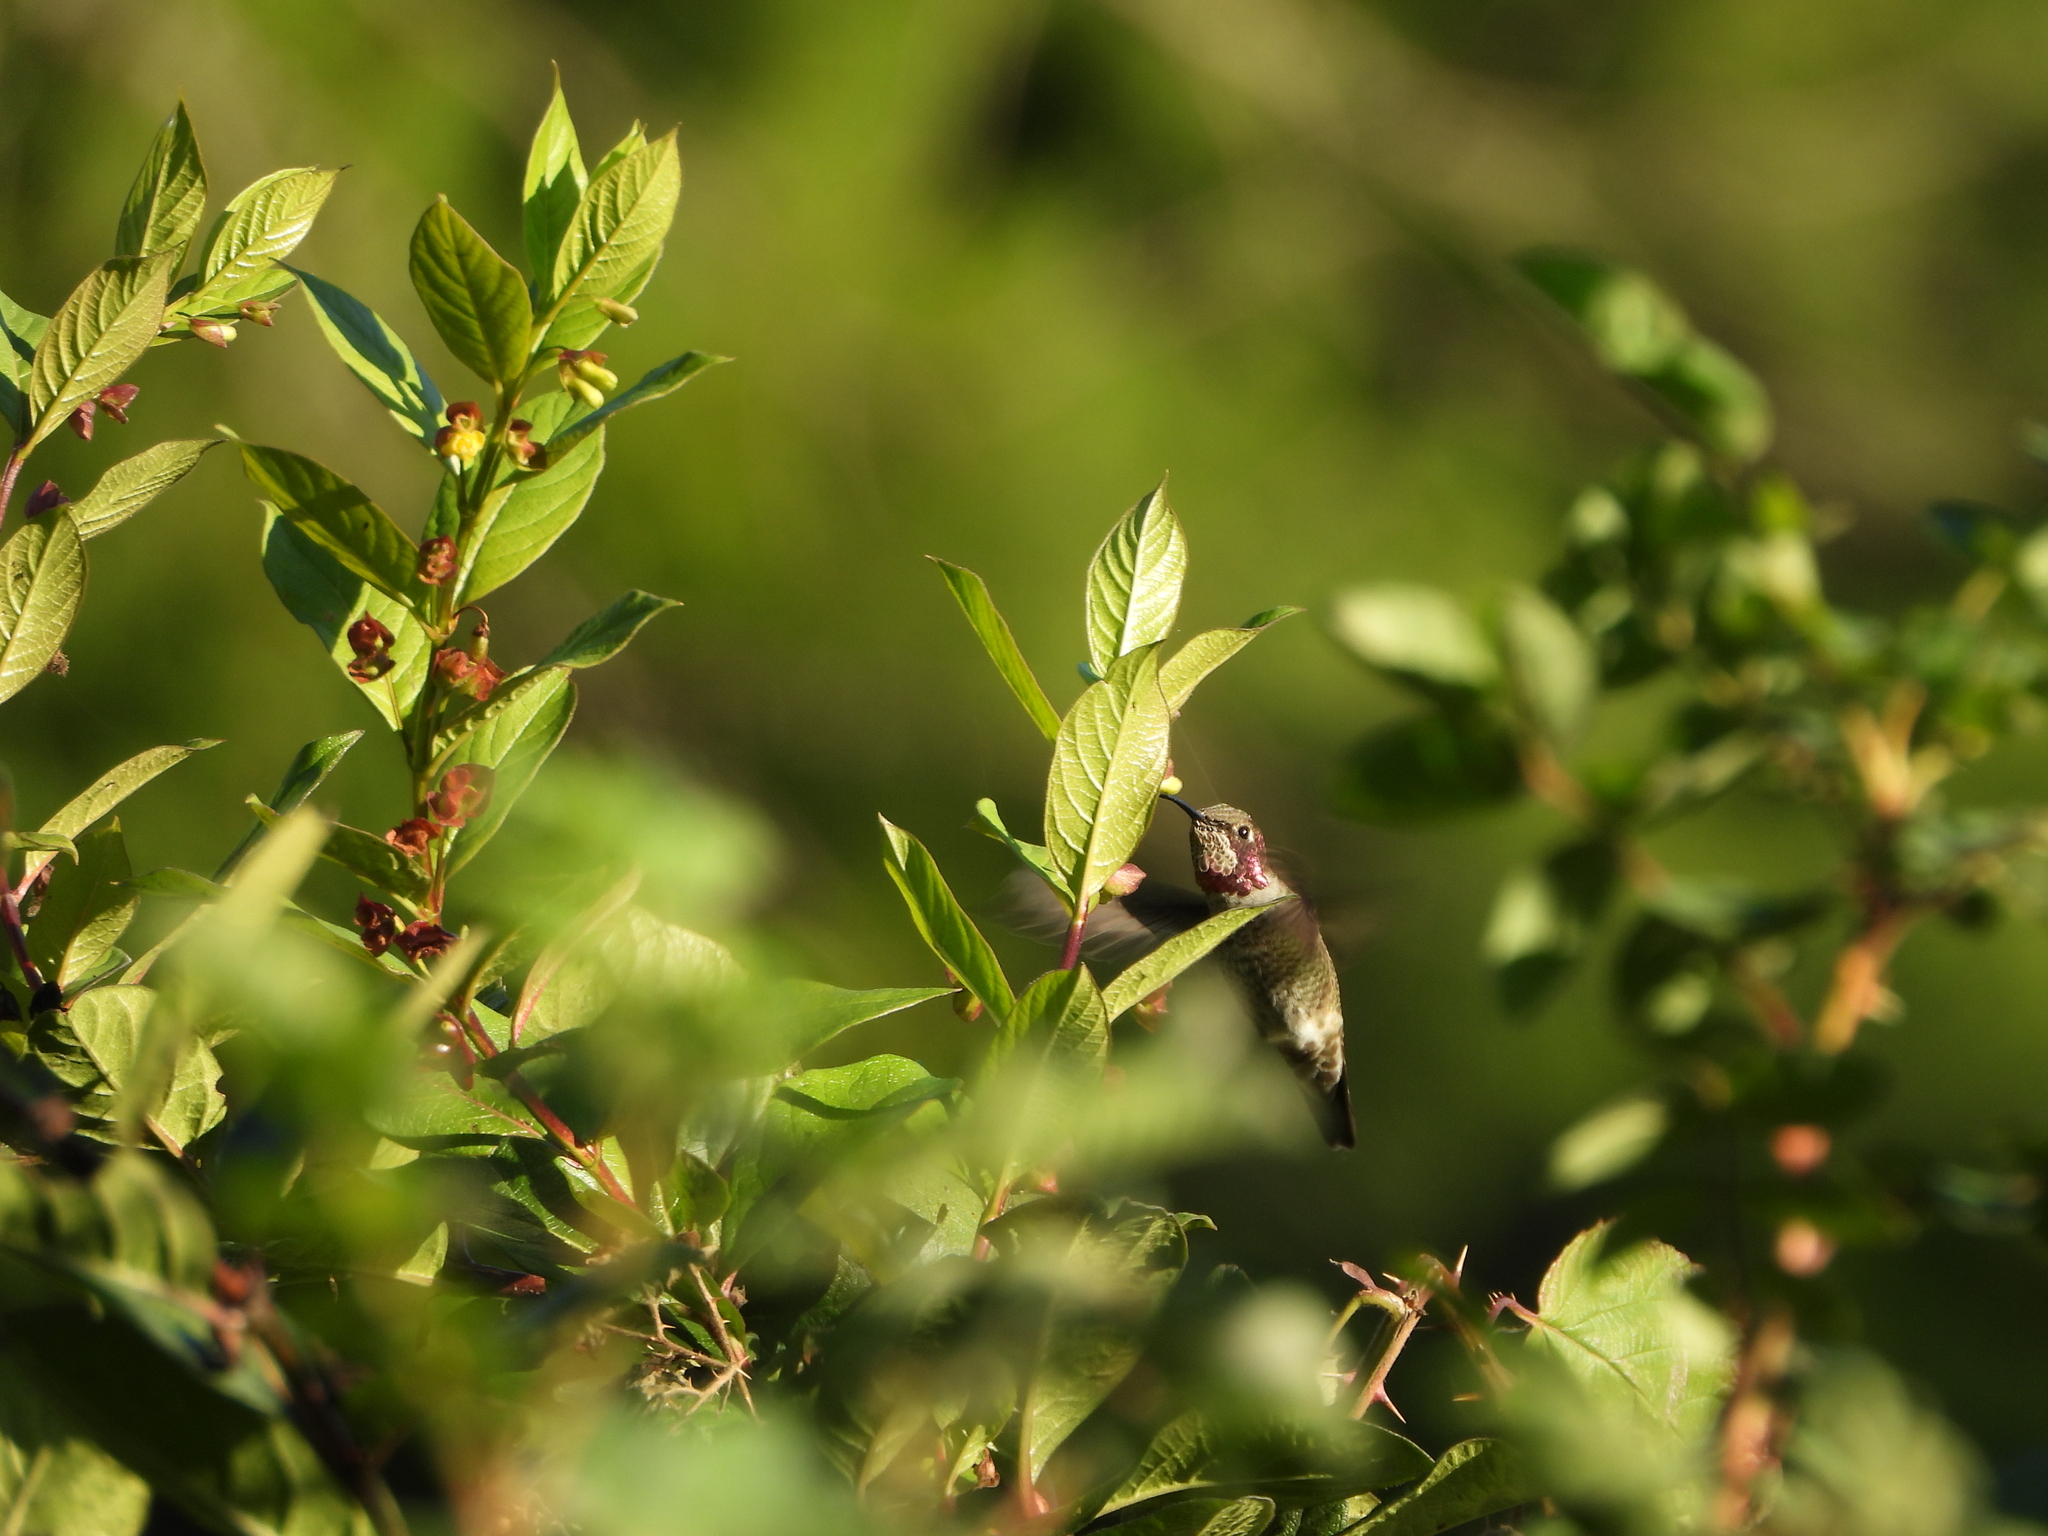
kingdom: Animalia
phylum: Chordata
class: Aves
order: Apodiformes
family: Trochilidae
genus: Calypte
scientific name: Calypte anna
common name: Anna's hummingbird
